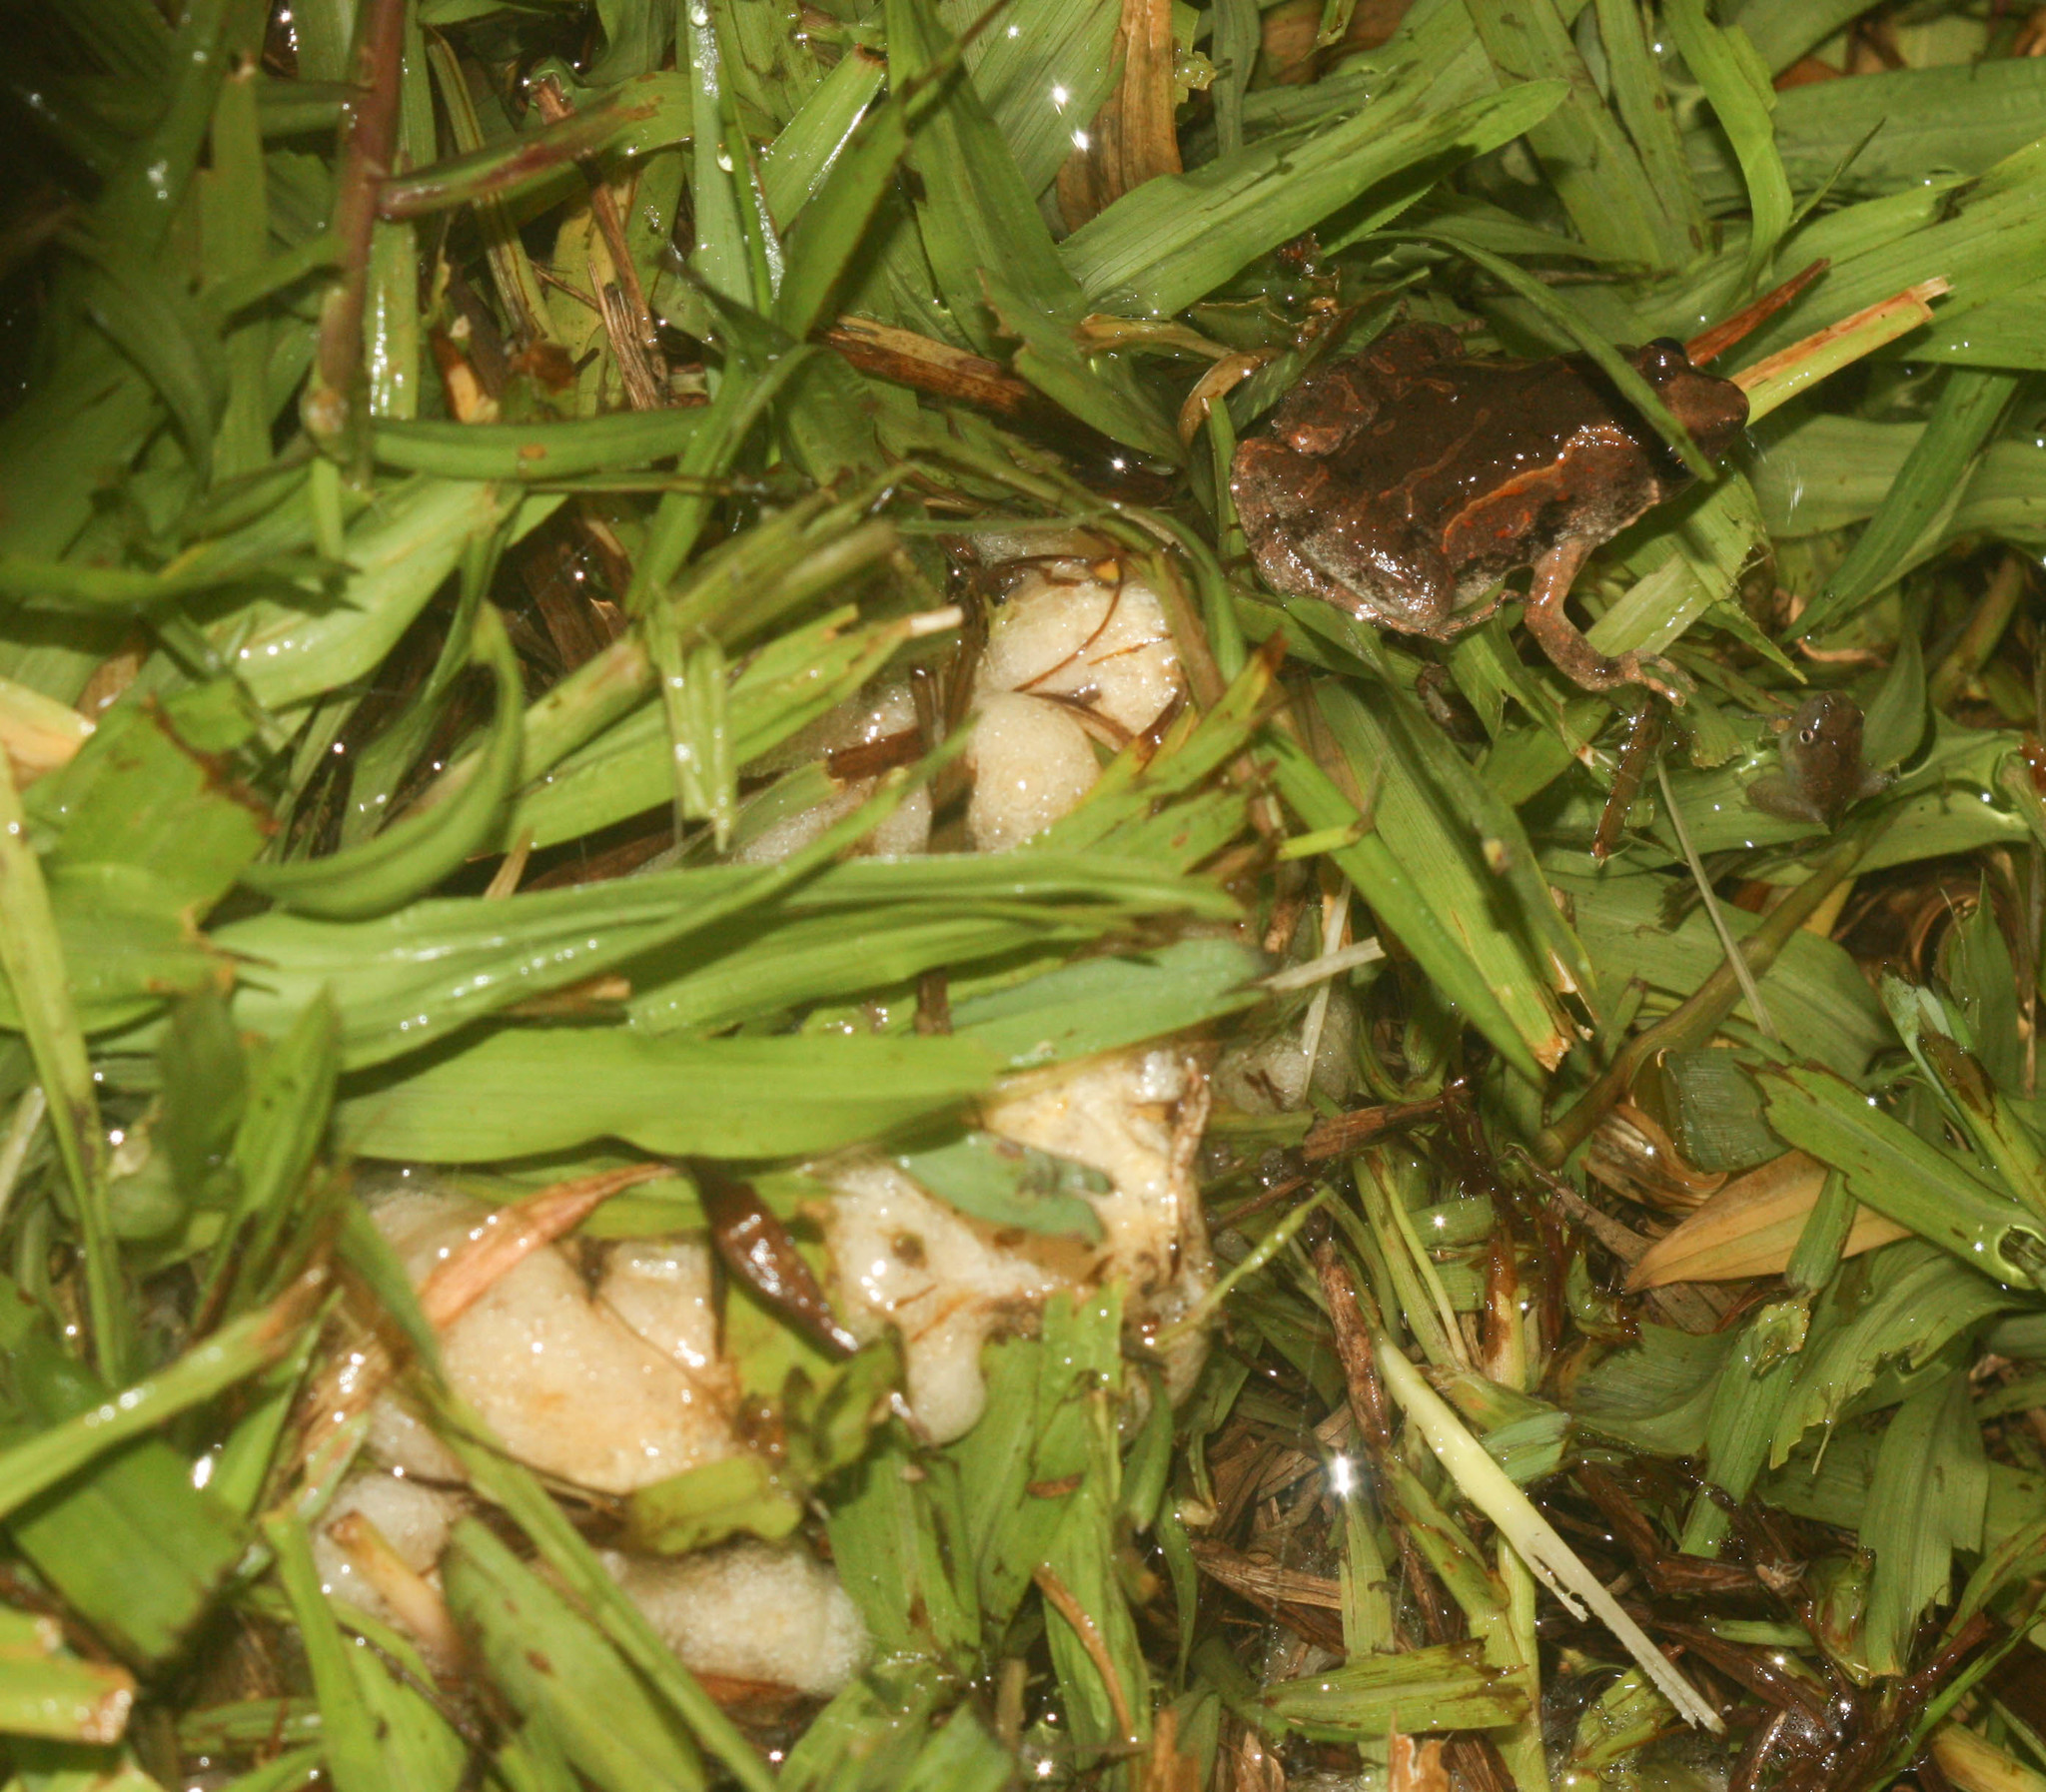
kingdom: Animalia
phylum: Chordata
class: Amphibia
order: Anura
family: Microhylidae
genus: Microhyla
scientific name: Microhyla butleri
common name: Butler’s rice frog,painted chorus frog,tubercled pygmy frog
